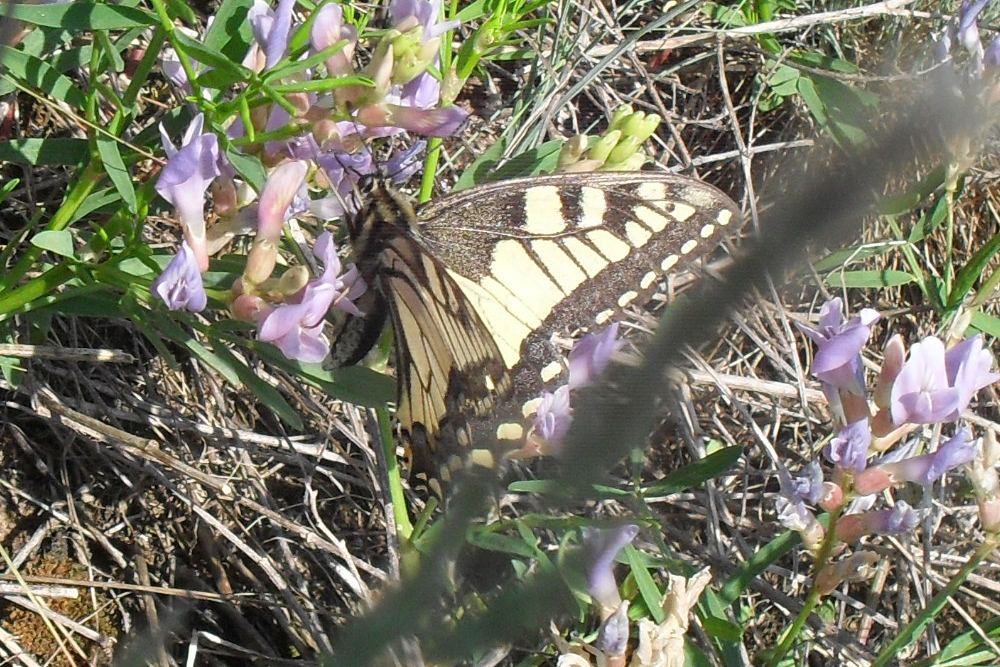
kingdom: Animalia
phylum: Arthropoda
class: Insecta
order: Lepidoptera
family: Papilionidae
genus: Papilio
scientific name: Papilio machaon
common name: Swallowtail
